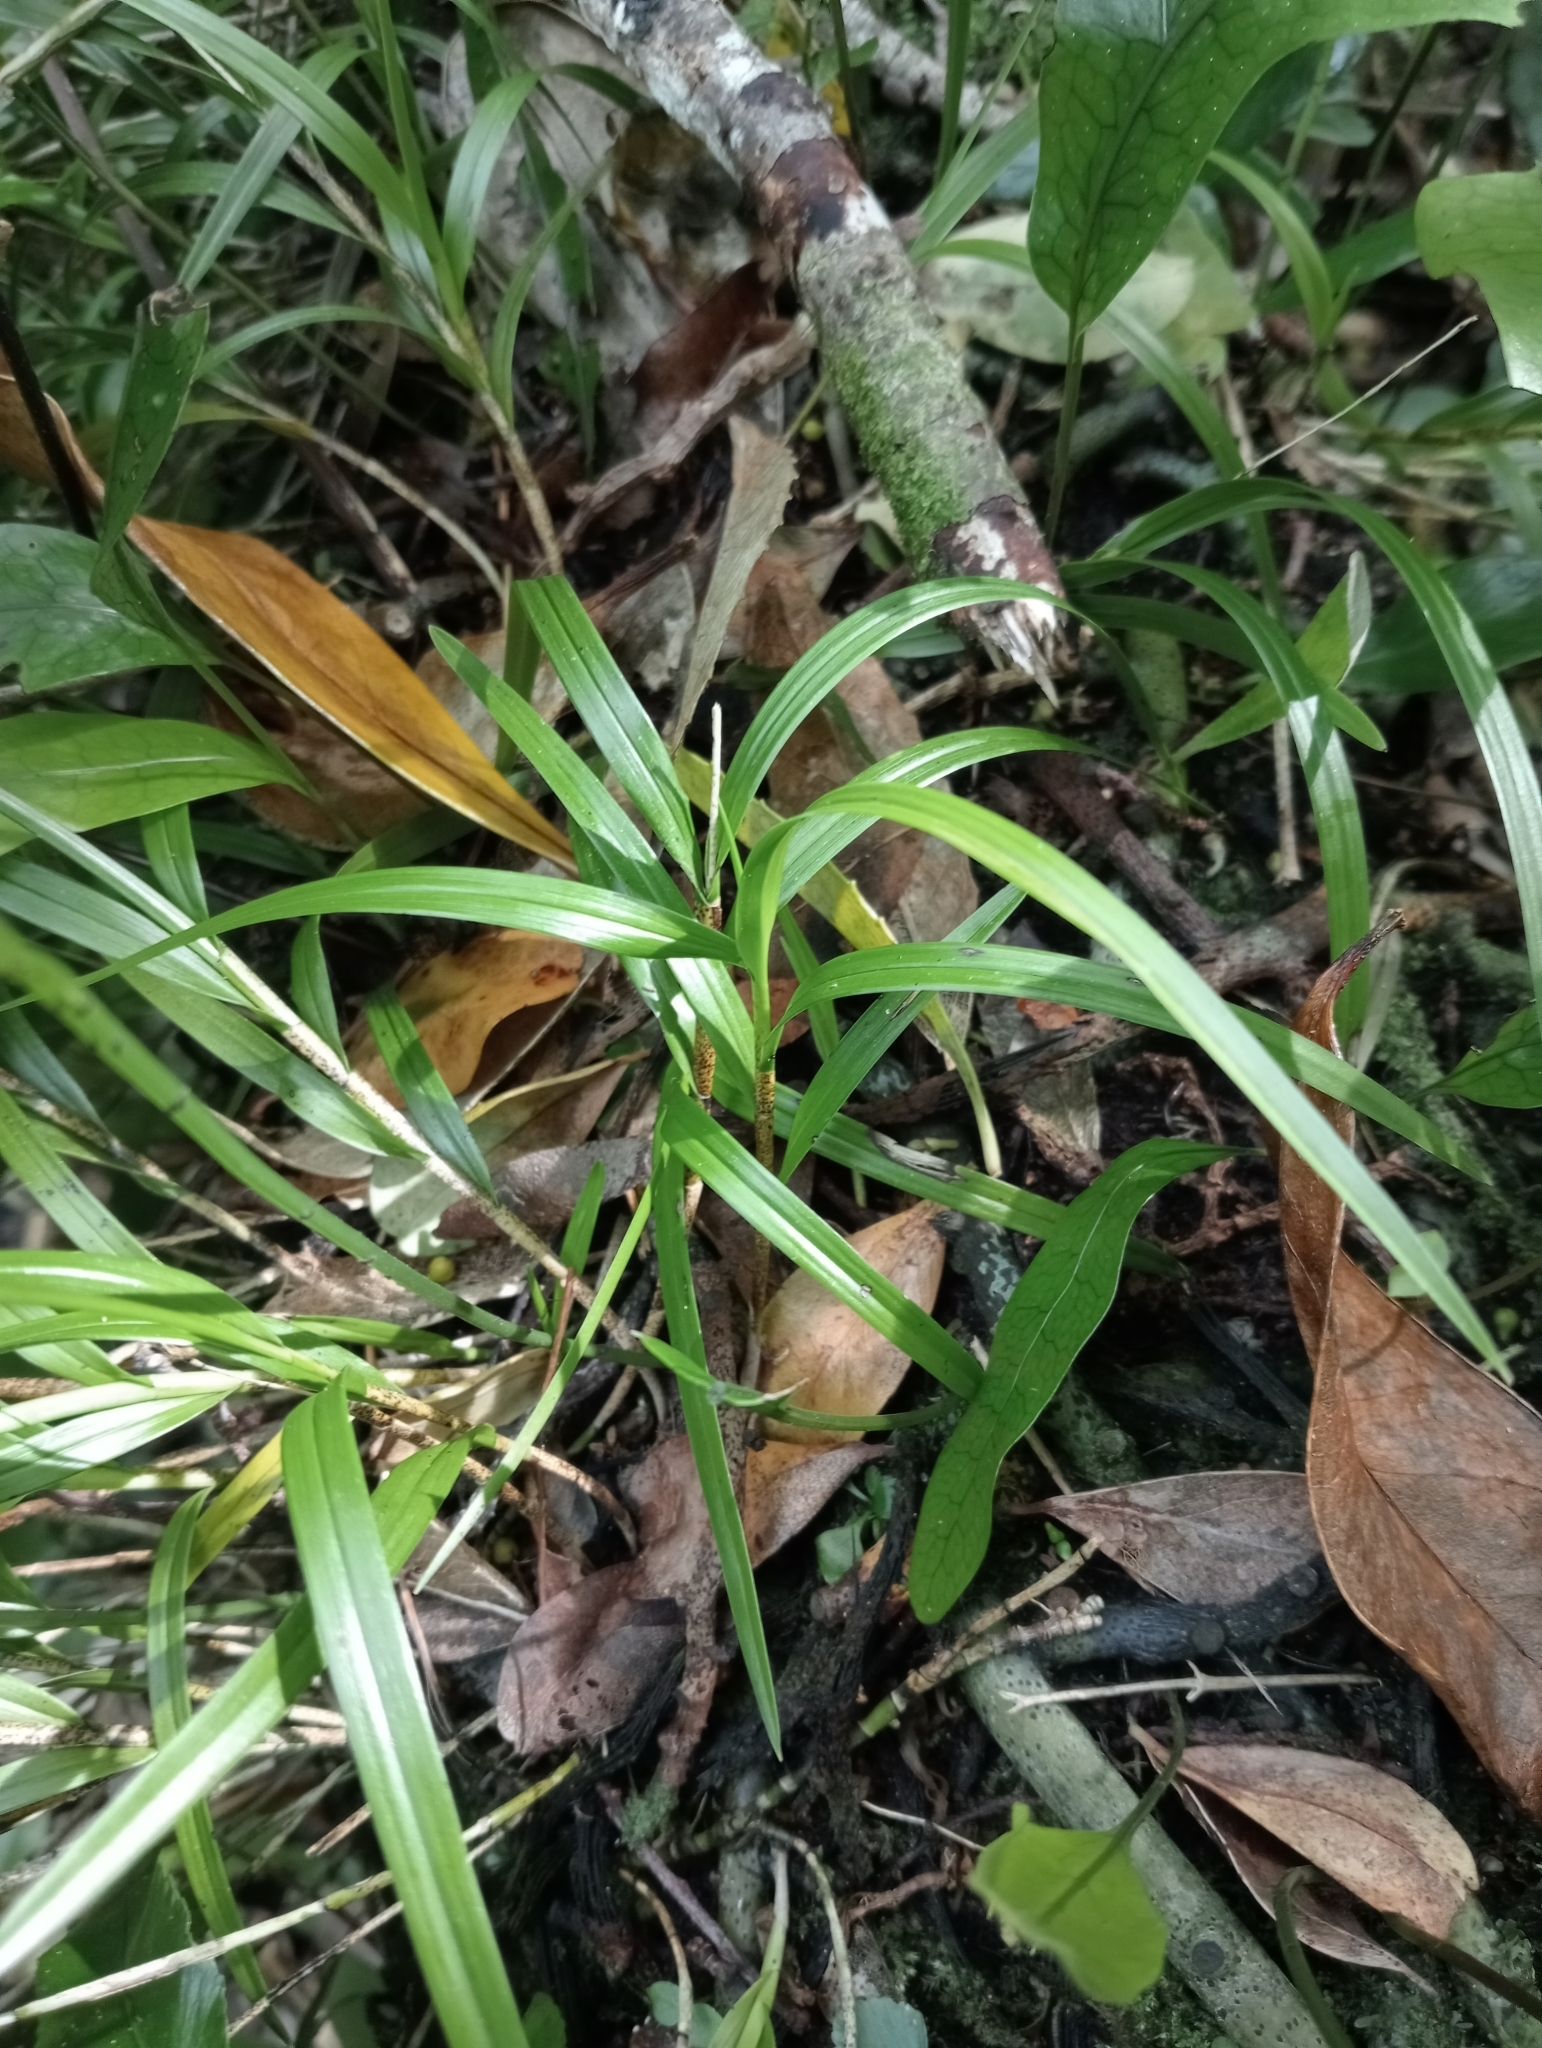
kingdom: Plantae
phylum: Tracheophyta
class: Liliopsida
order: Asparagales
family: Orchidaceae
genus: Earina
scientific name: Earina mucronata
